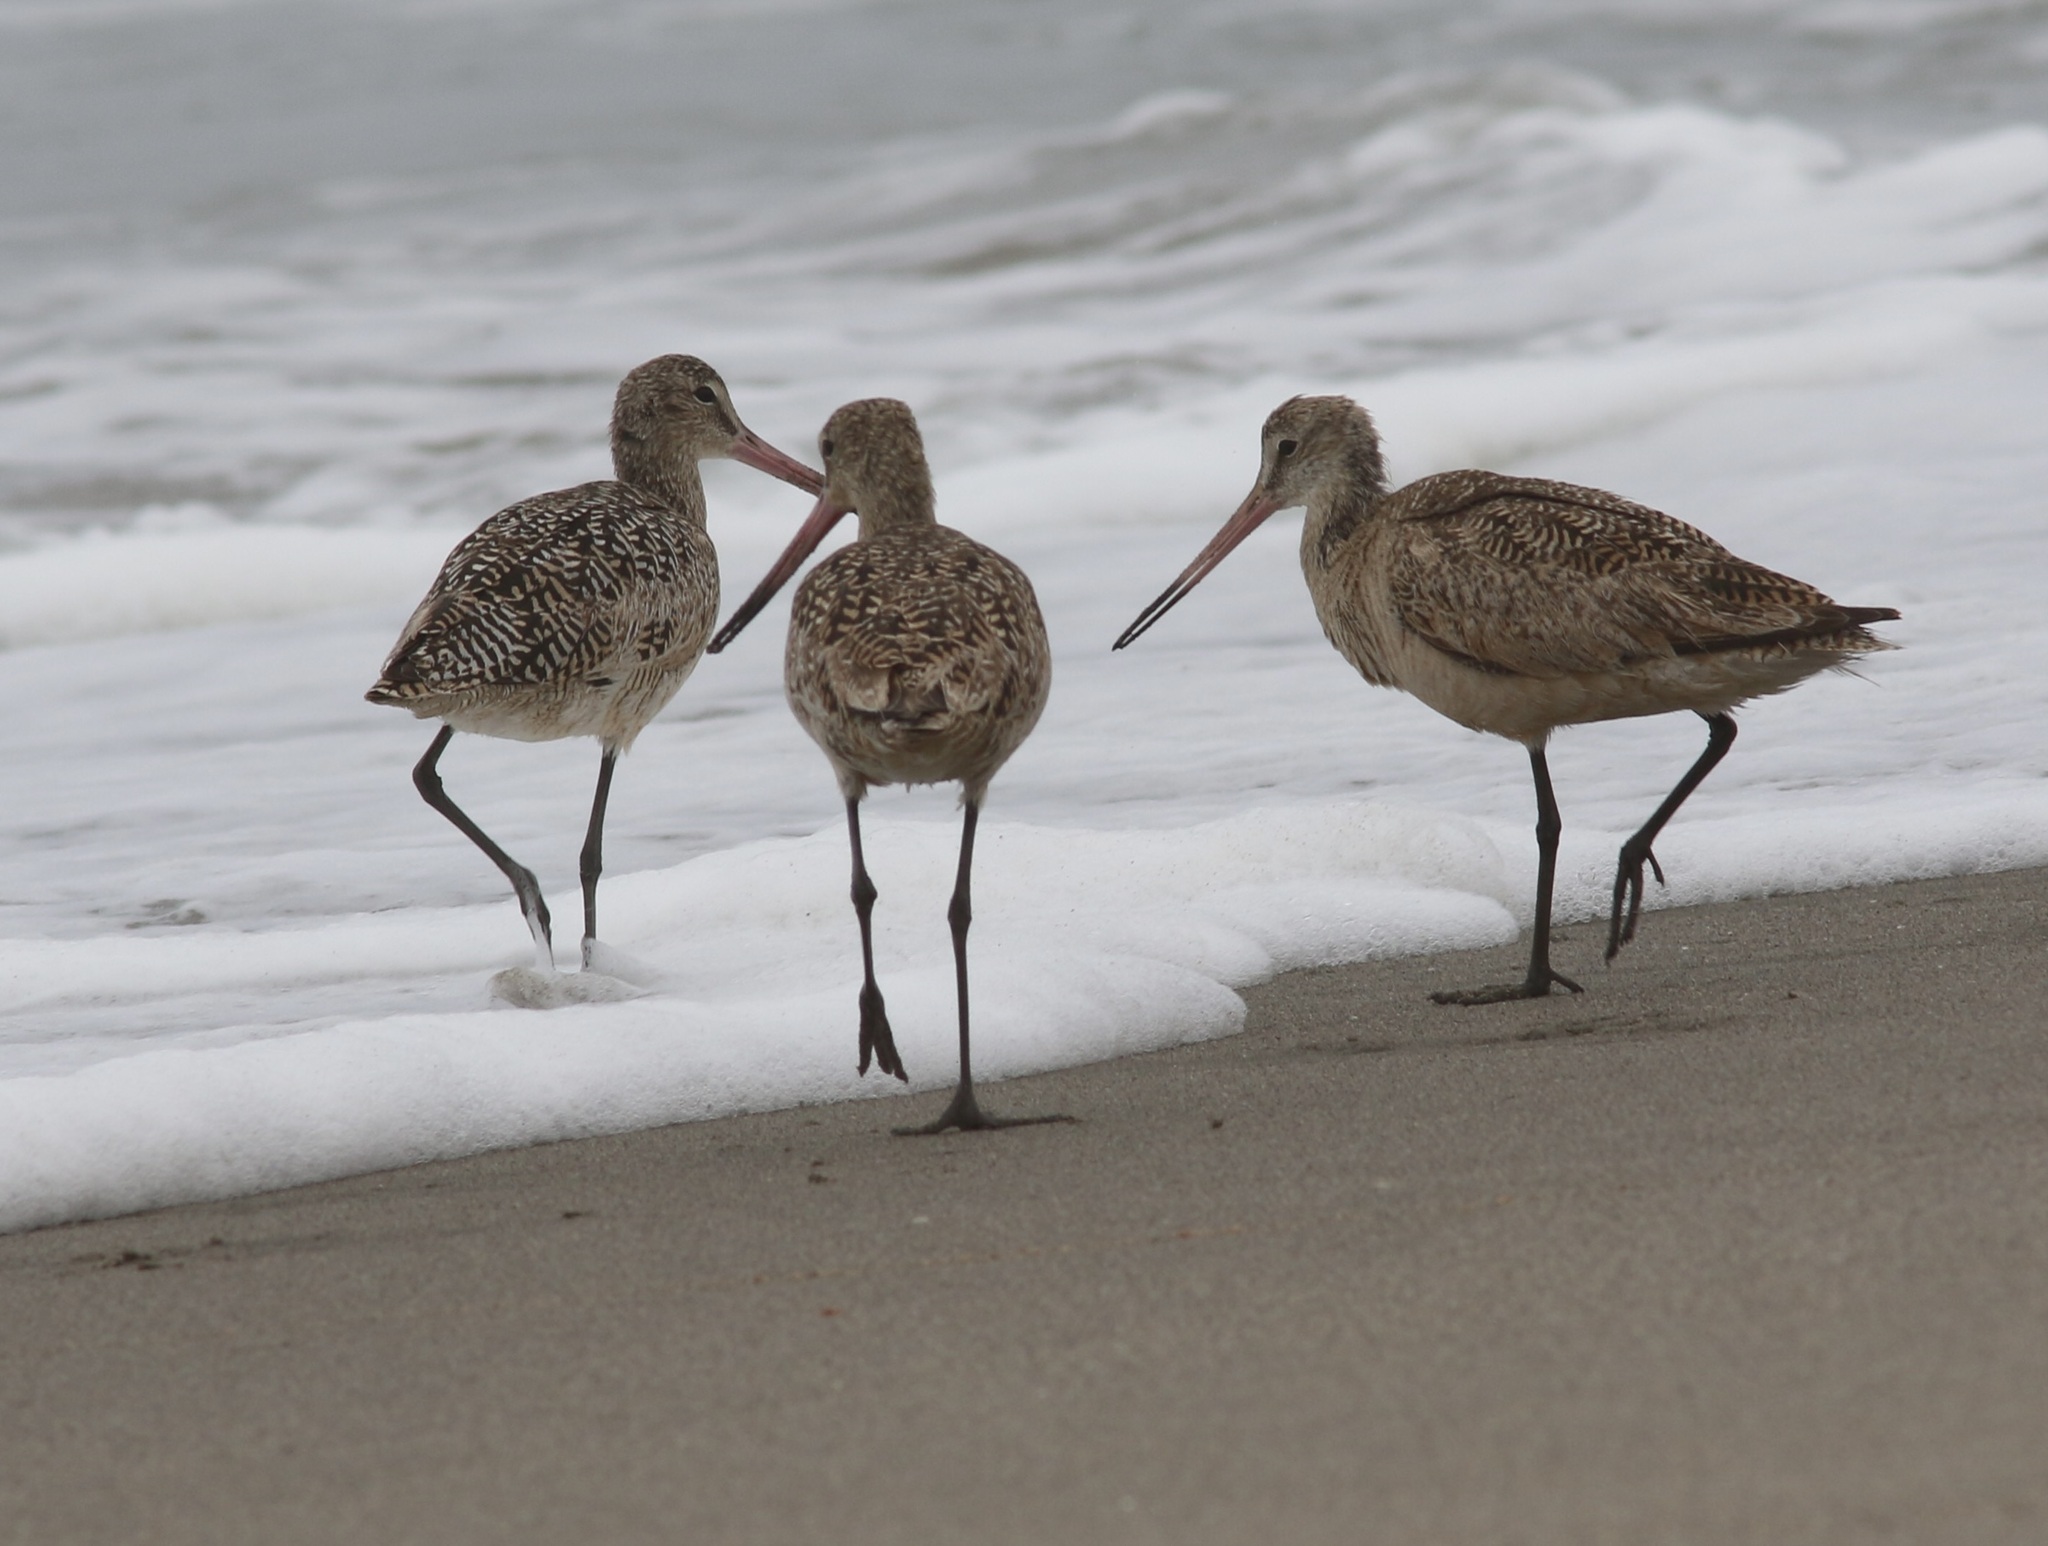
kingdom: Animalia
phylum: Chordata
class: Aves
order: Charadriiformes
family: Scolopacidae
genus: Limosa
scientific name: Limosa fedoa
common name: Marbled godwit
